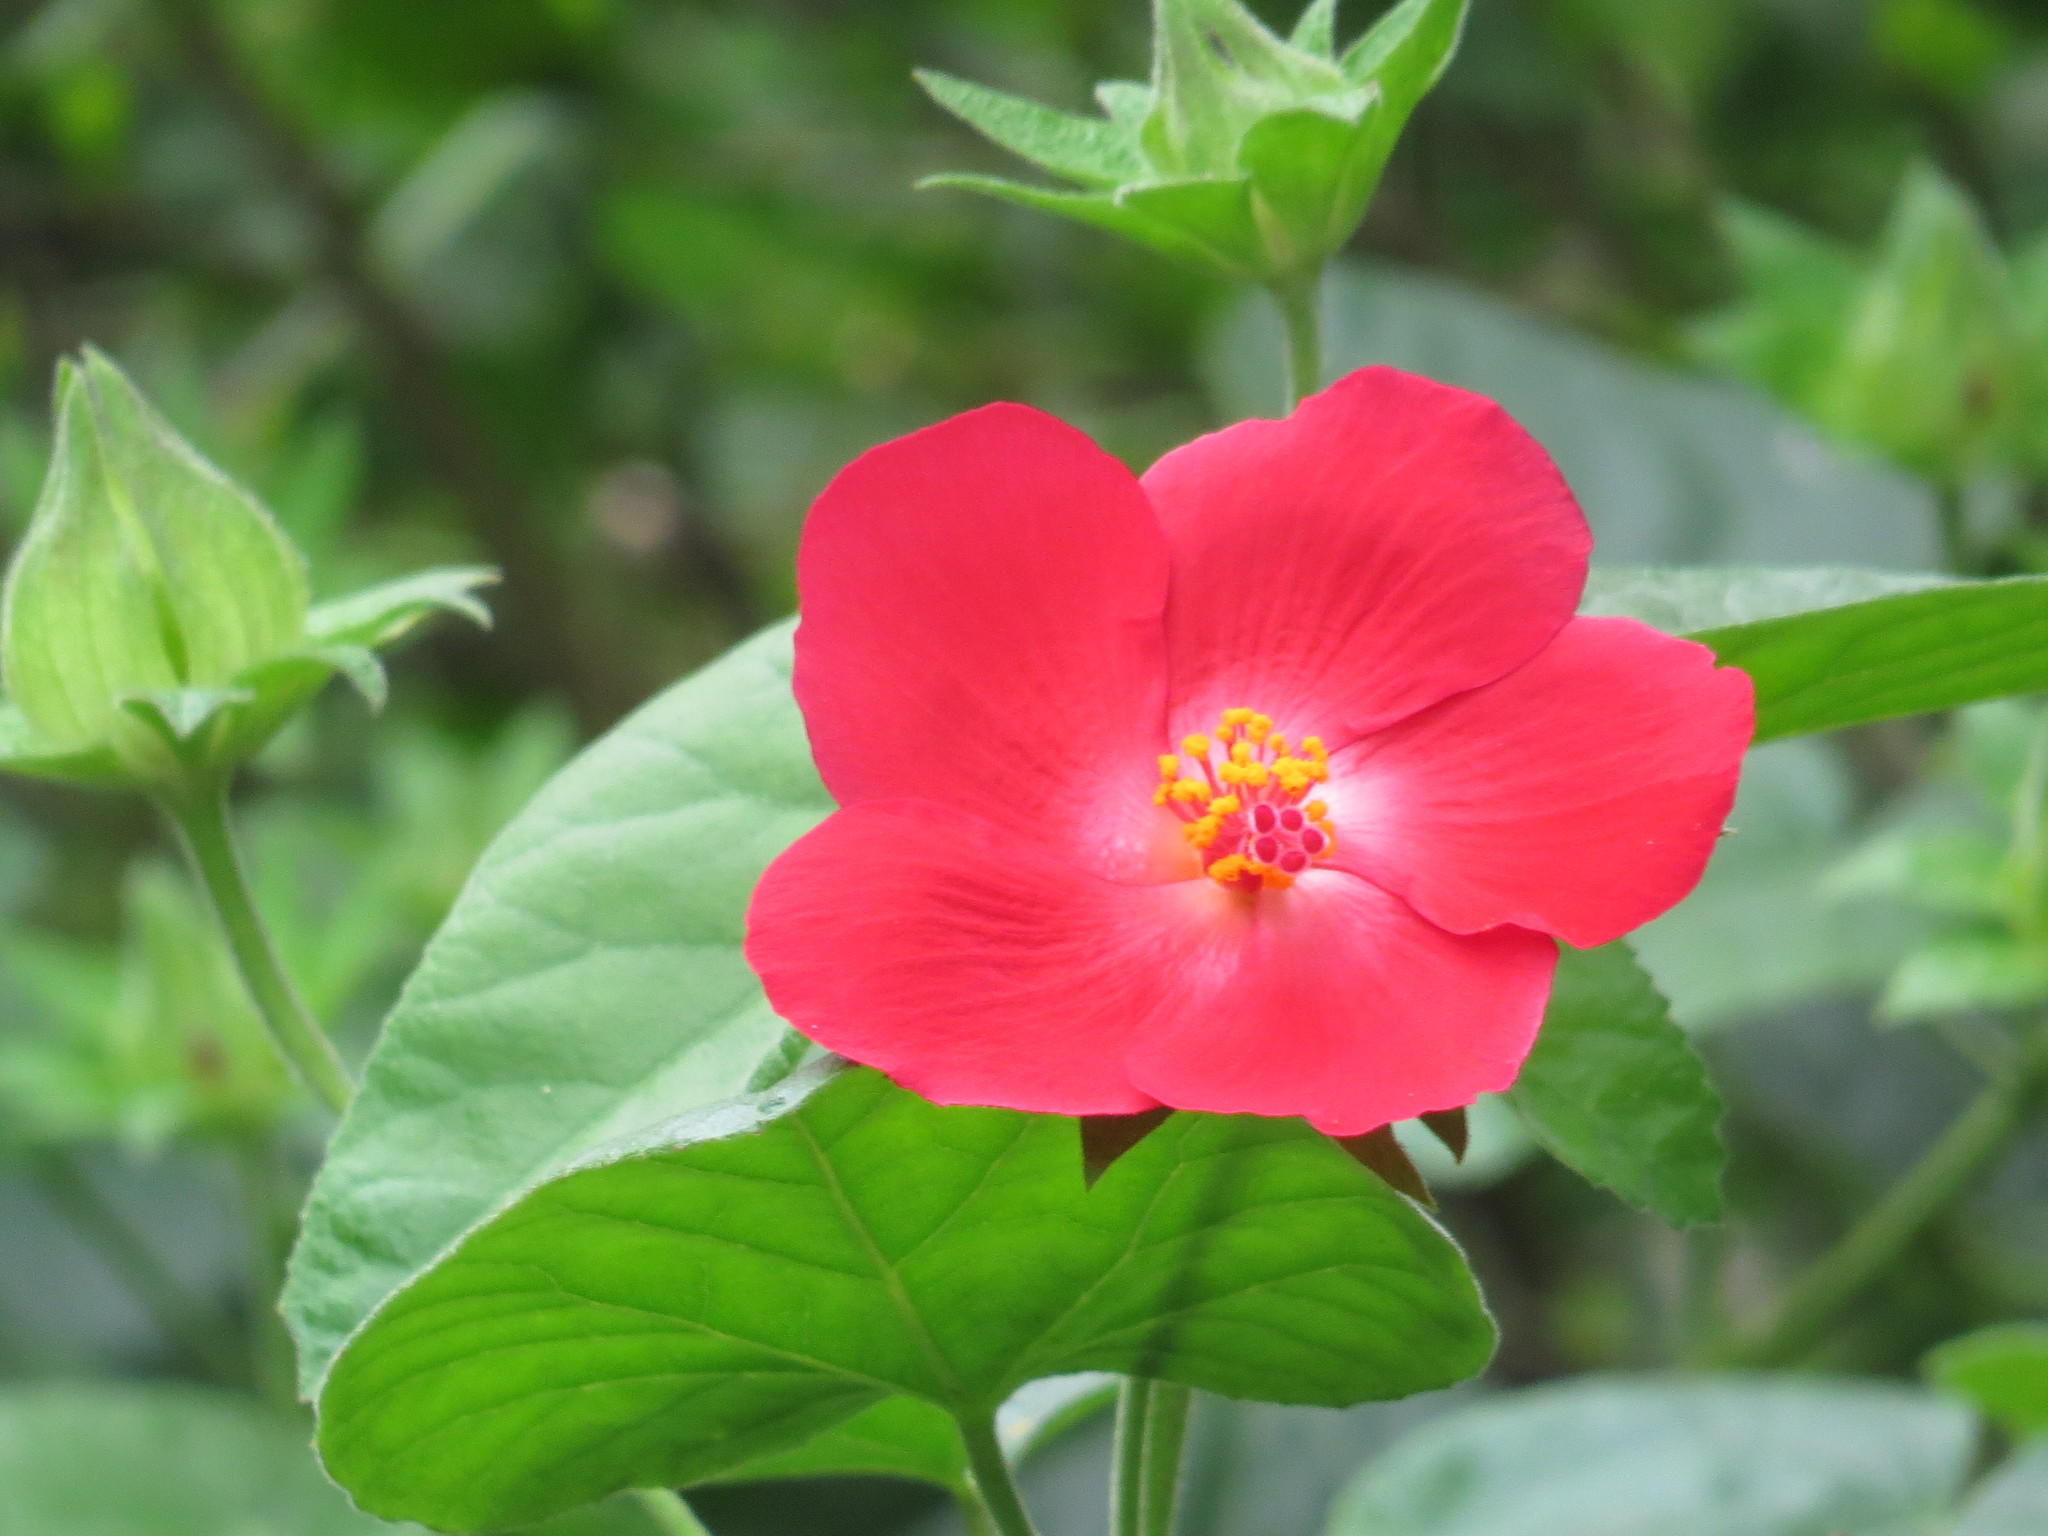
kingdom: Plantae
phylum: Tracheophyta
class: Magnoliopsida
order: Malvales
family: Malvaceae
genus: Hibiscus
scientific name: Hibiscus martianus
